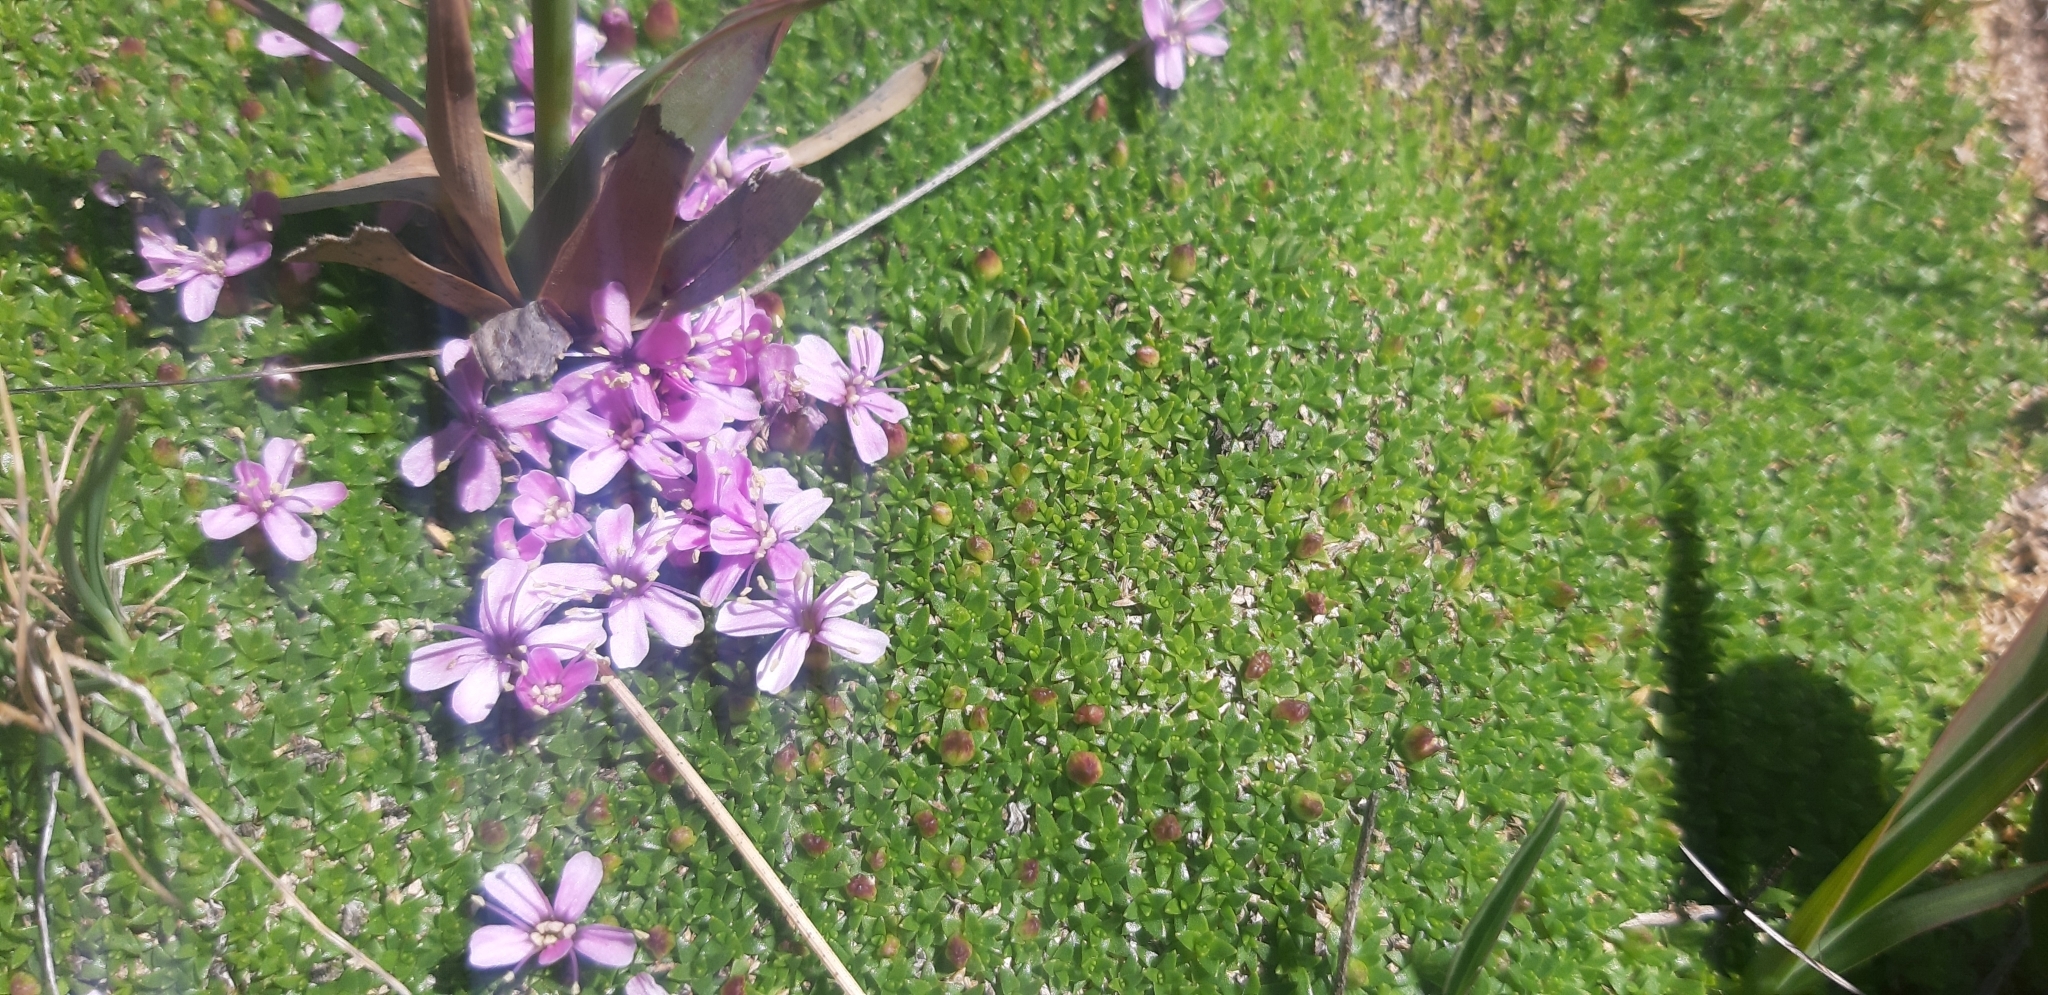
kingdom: Plantae
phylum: Tracheophyta
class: Magnoliopsida
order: Caryophyllales
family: Caryophyllaceae
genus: Silene
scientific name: Silene acaulis
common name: Moss campion
